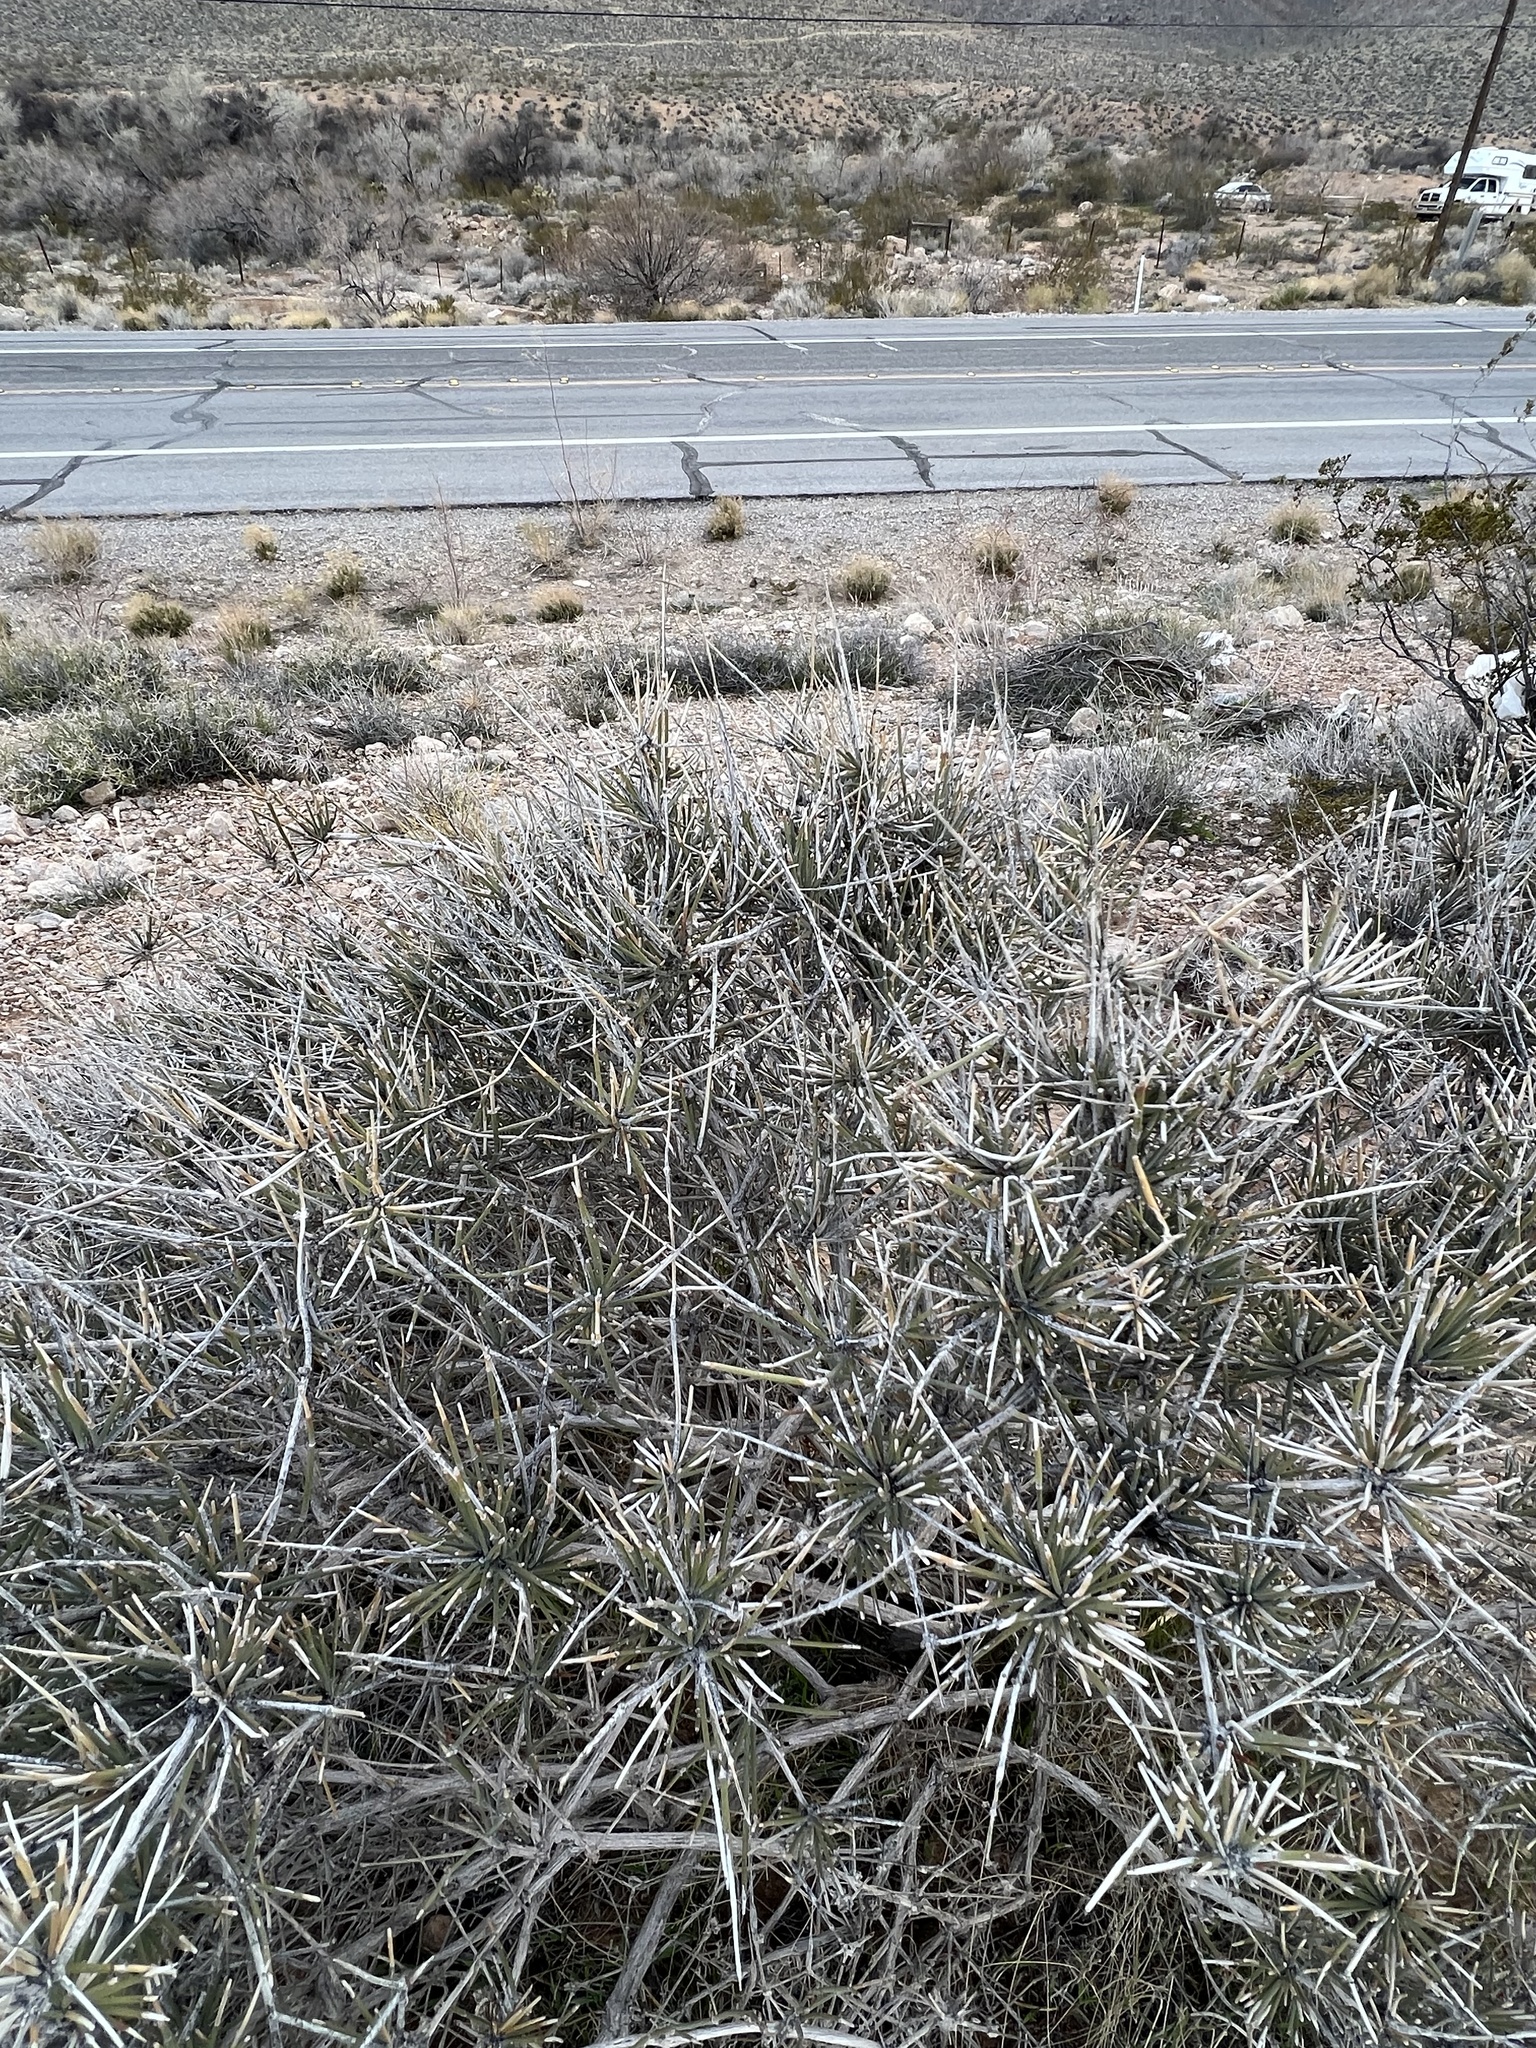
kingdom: Plantae
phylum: Tracheophyta
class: Gnetopsida
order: Ephedrales
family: Ephedraceae
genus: Ephedra
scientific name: Ephedra nevadensis
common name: Gray ephedra
